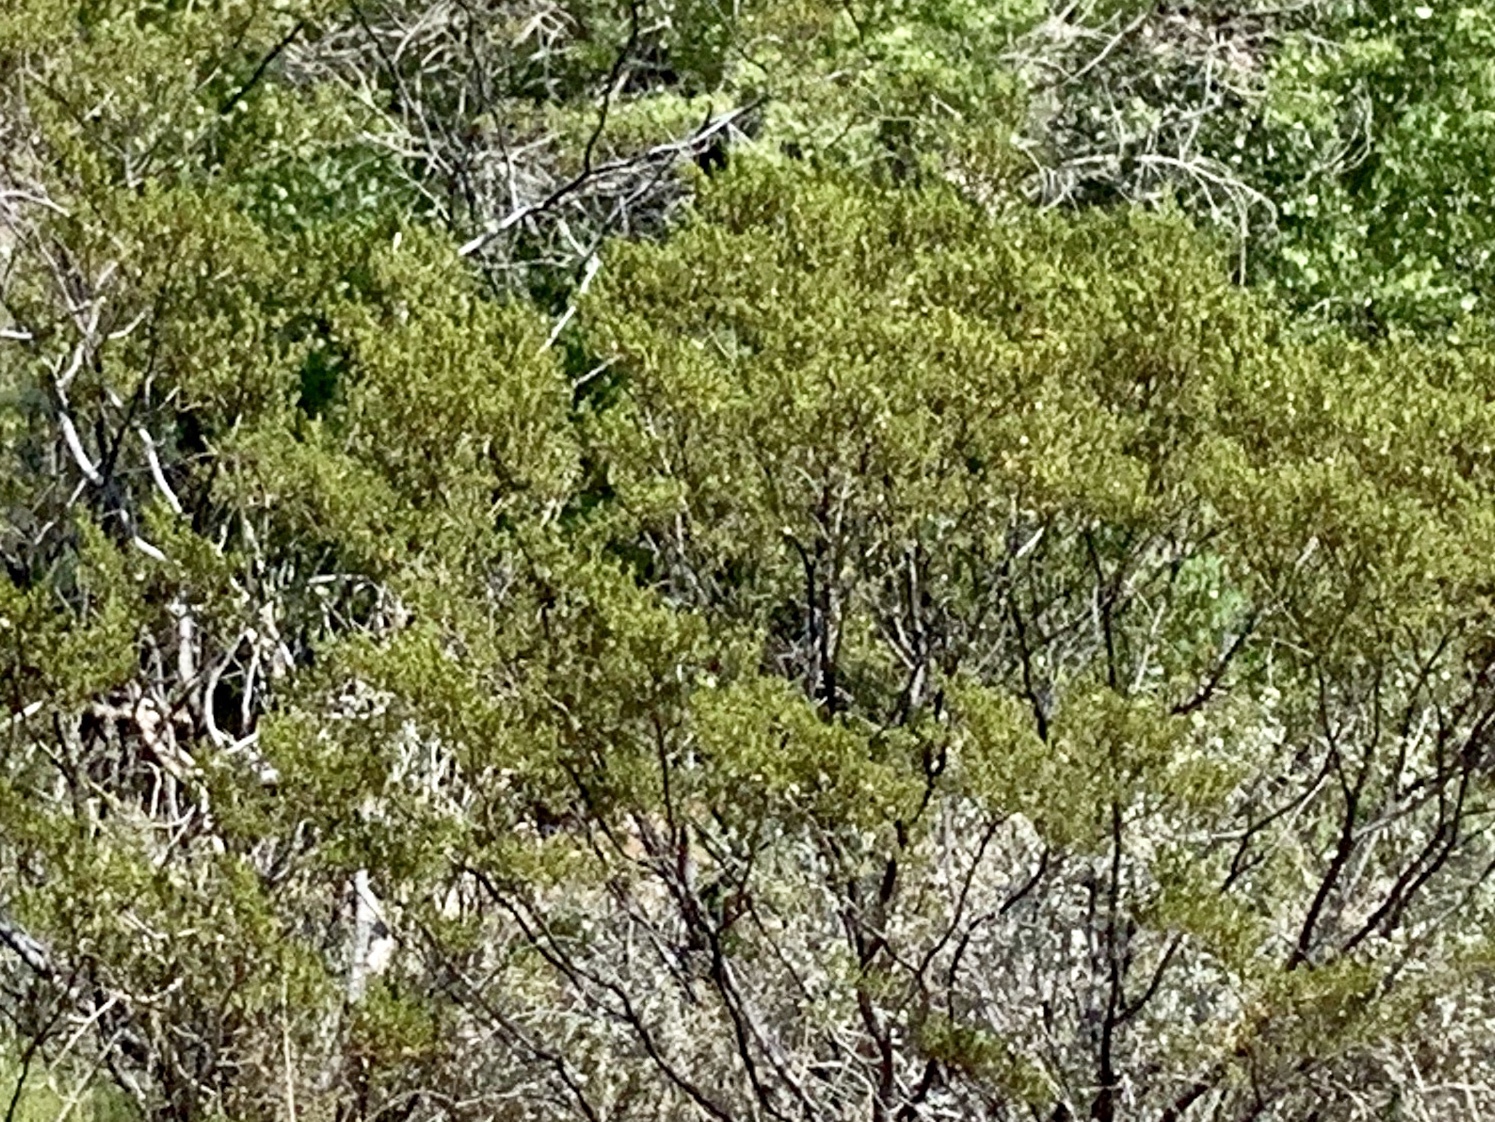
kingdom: Plantae
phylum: Tracheophyta
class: Magnoliopsida
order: Zygophyllales
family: Zygophyllaceae
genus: Larrea
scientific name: Larrea tridentata
